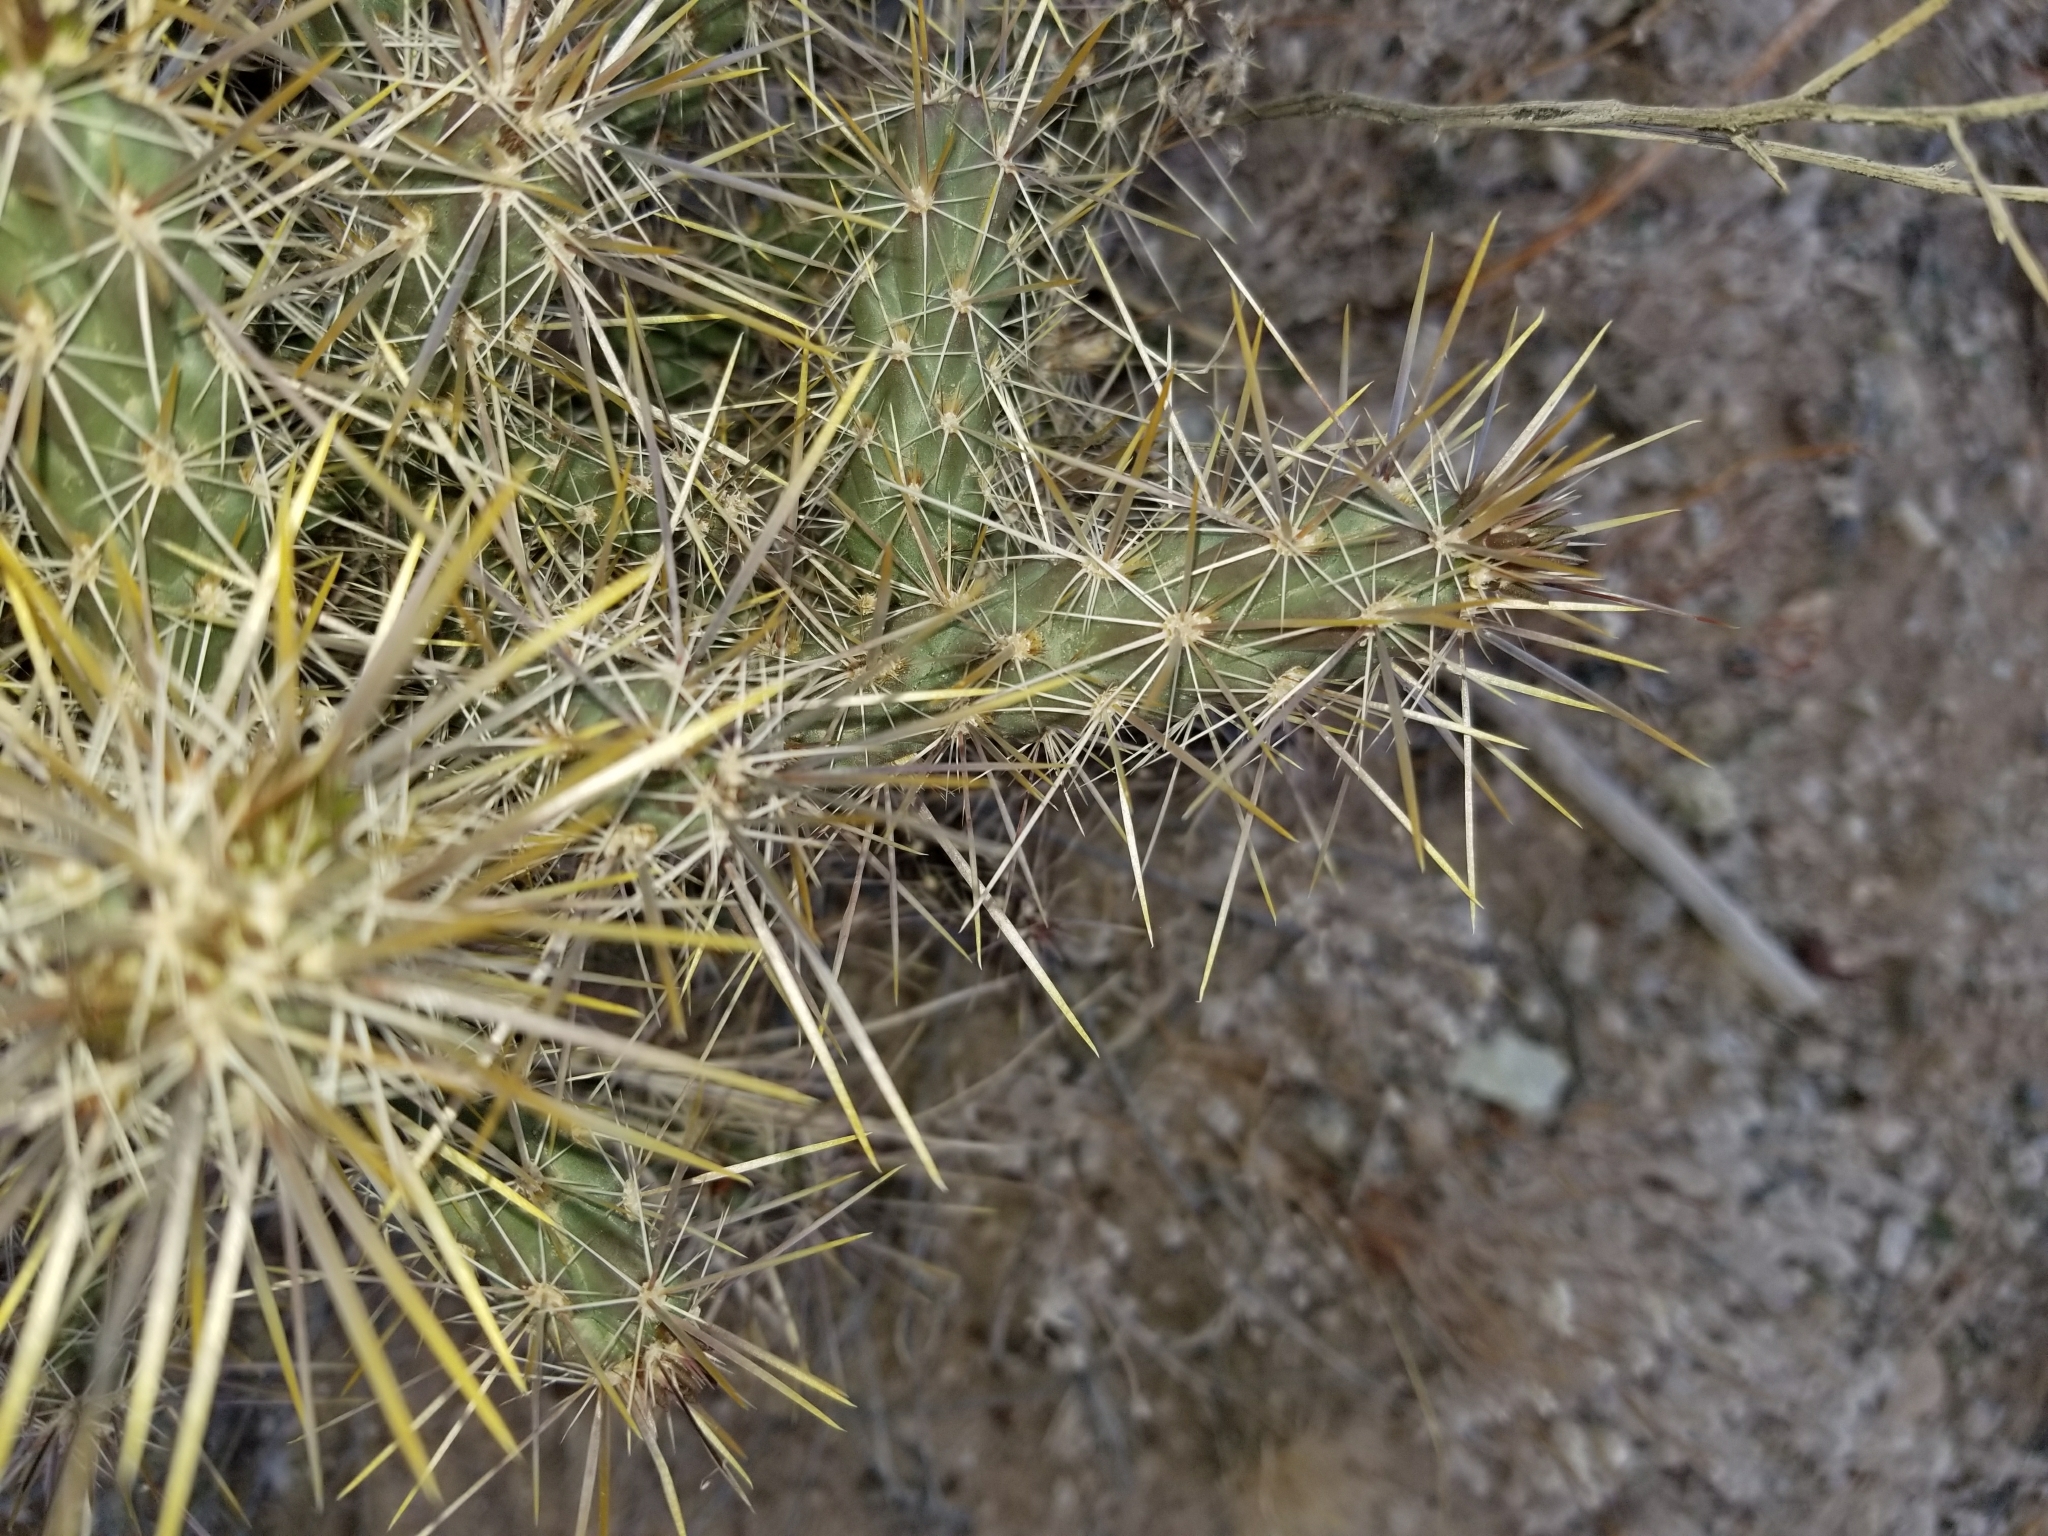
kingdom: Plantae
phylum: Tracheophyta
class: Magnoliopsida
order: Caryophyllales
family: Cactaceae
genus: Cylindropuntia
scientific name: Cylindropuntia echinocarpa
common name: Ground cholla
